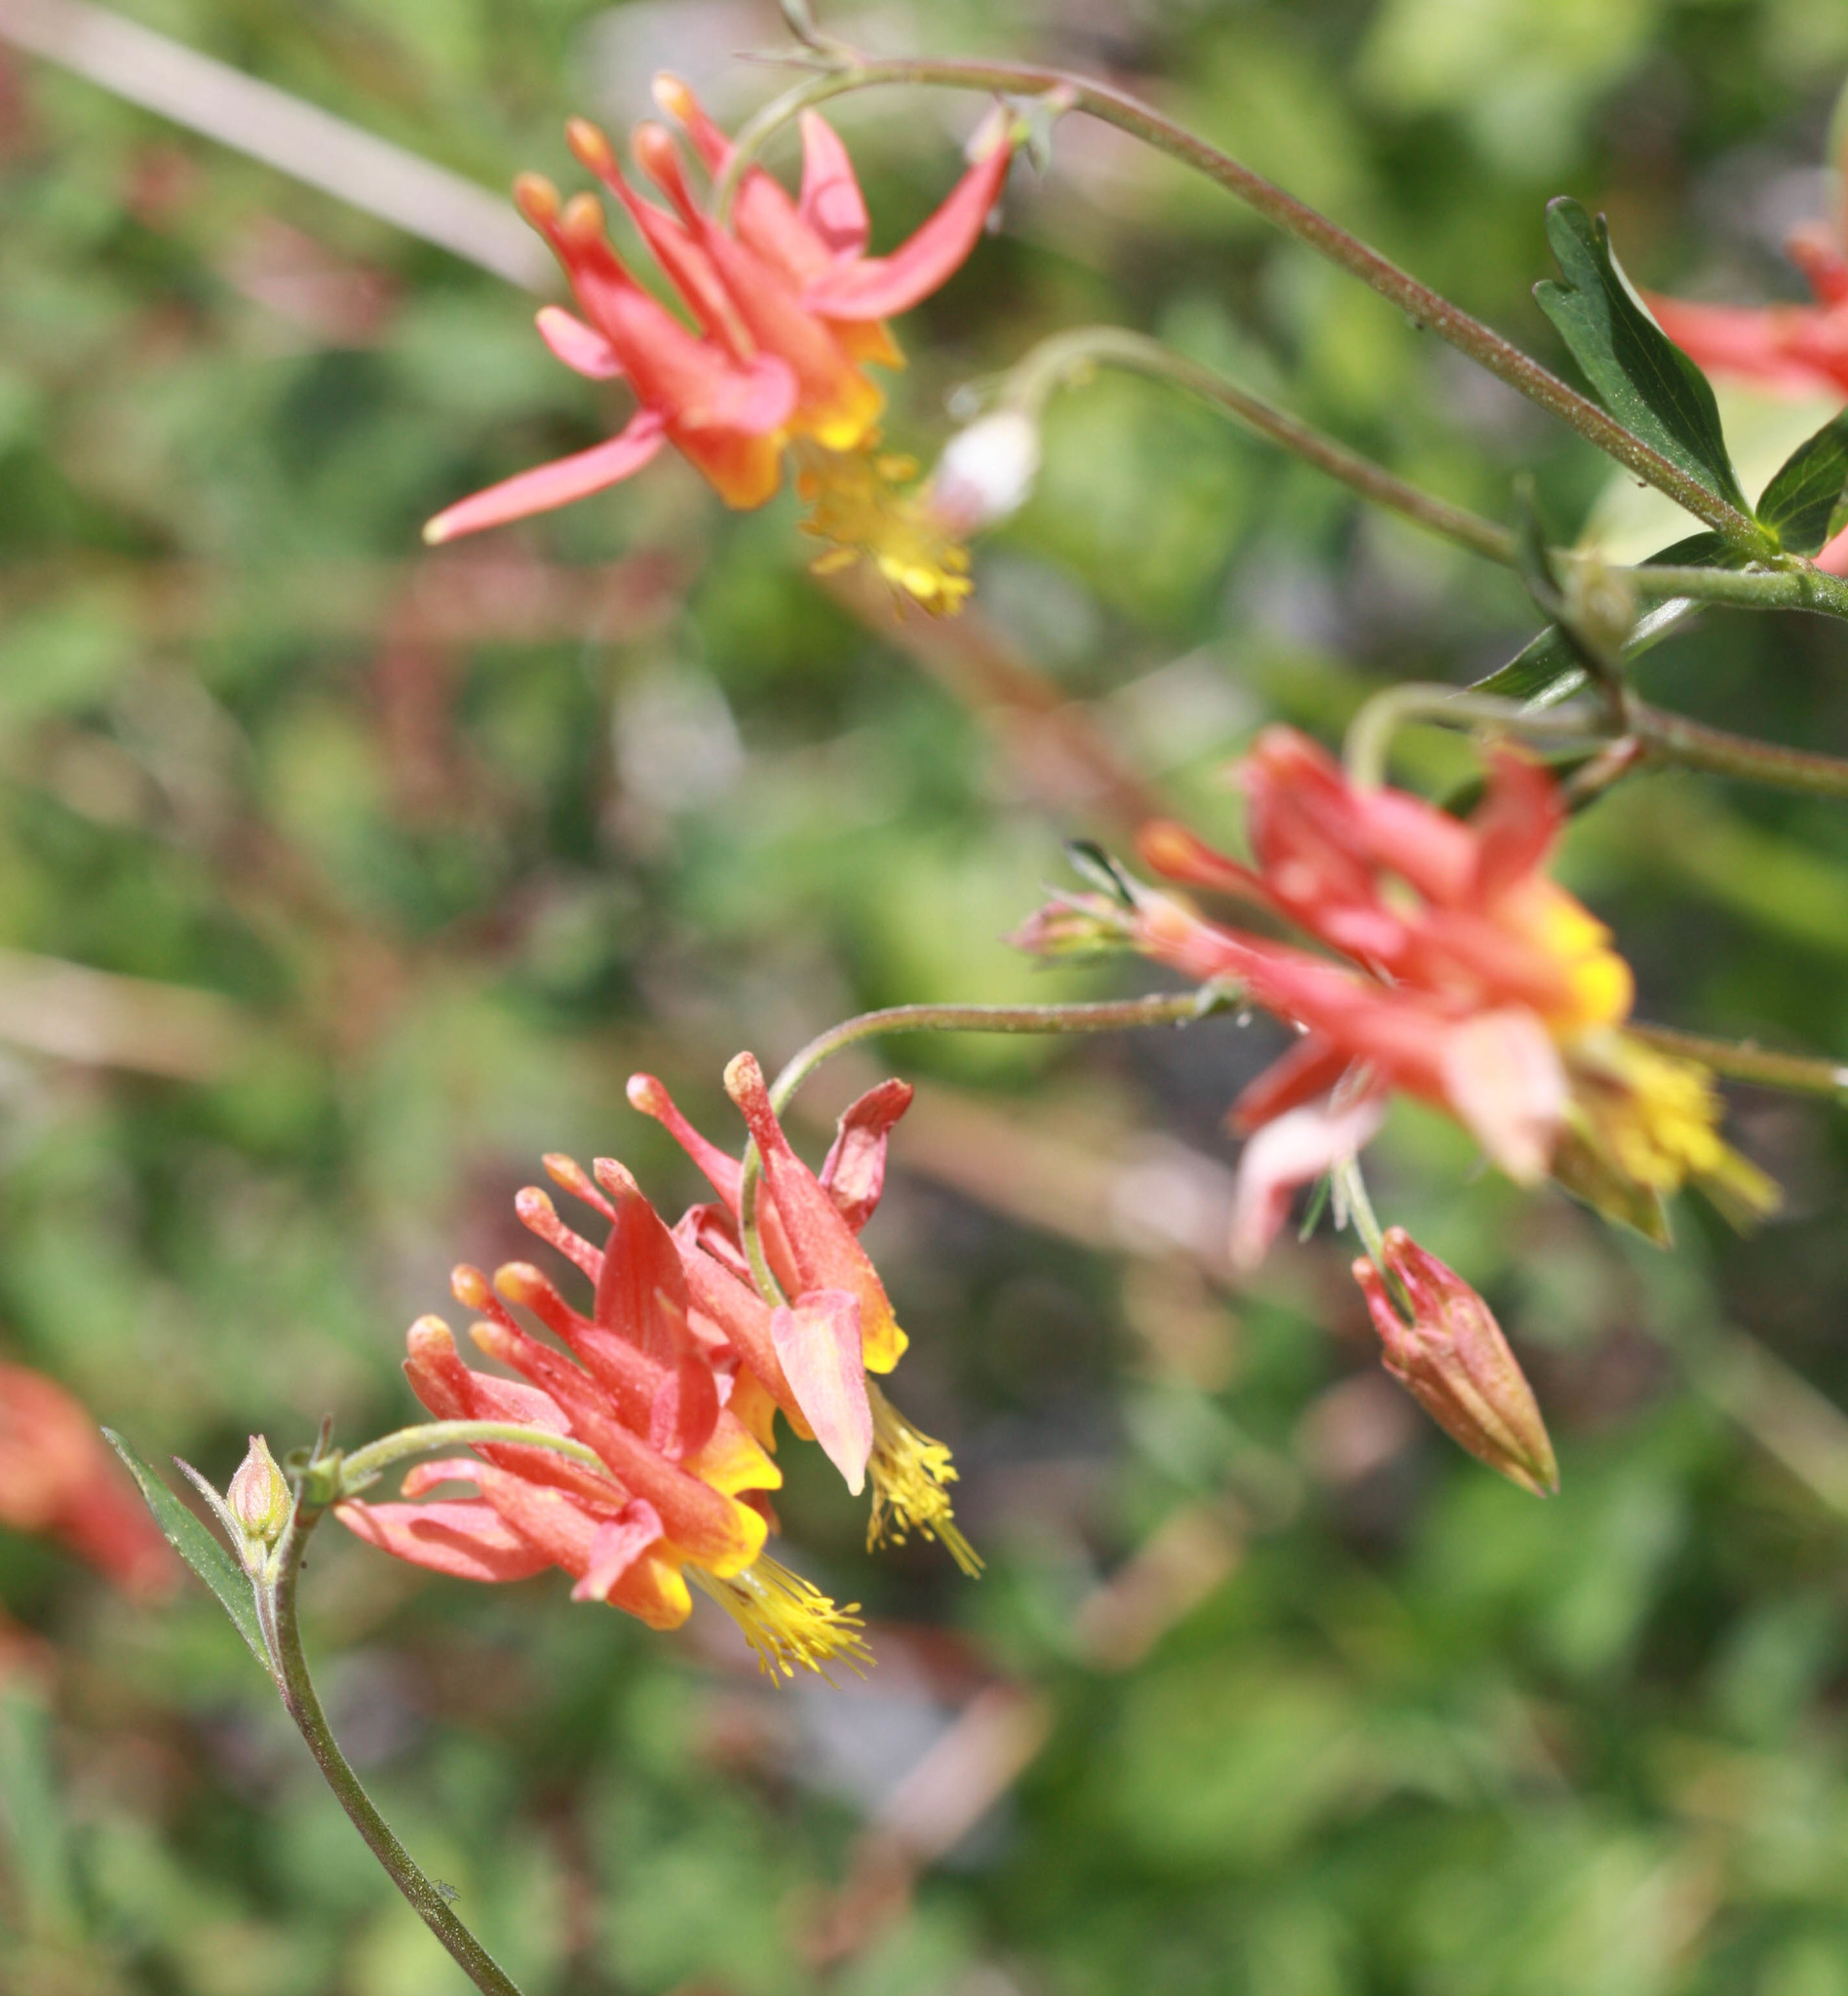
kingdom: Plantae
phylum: Tracheophyta
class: Magnoliopsida
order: Ranunculales
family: Ranunculaceae
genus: Aquilegia
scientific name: Aquilegia formosa
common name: Sitka columbine
